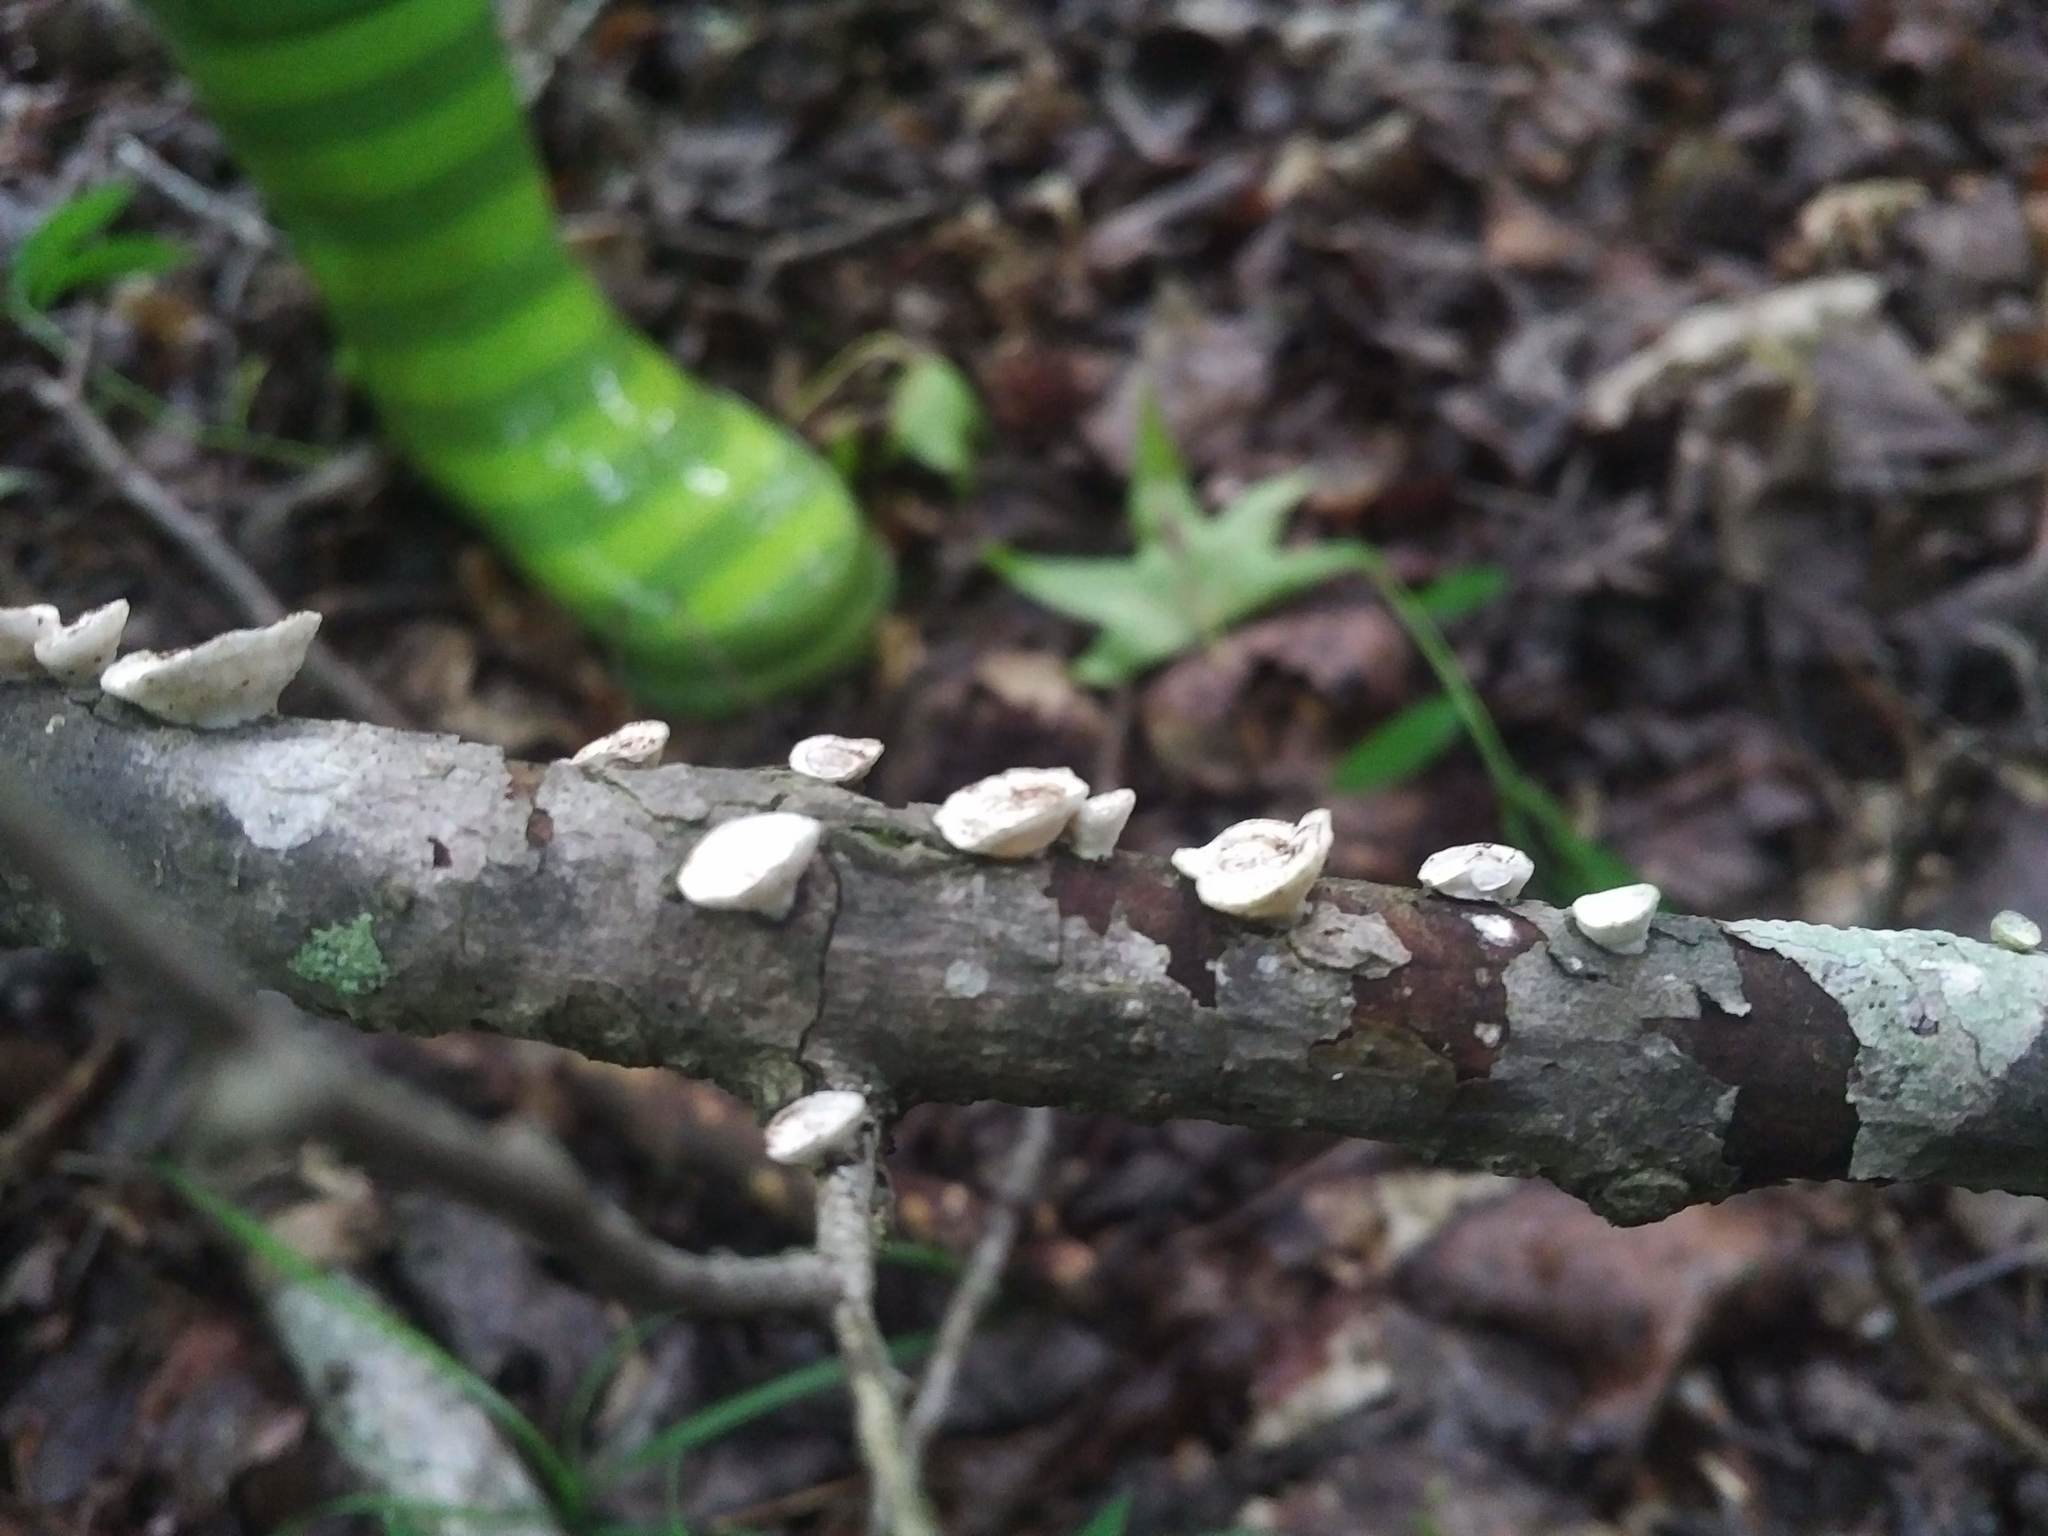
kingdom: Fungi
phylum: Basidiomycota
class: Agaricomycetes
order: Polyporales
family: Polyporaceae
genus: Poronidulus
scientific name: Poronidulus conchifer
